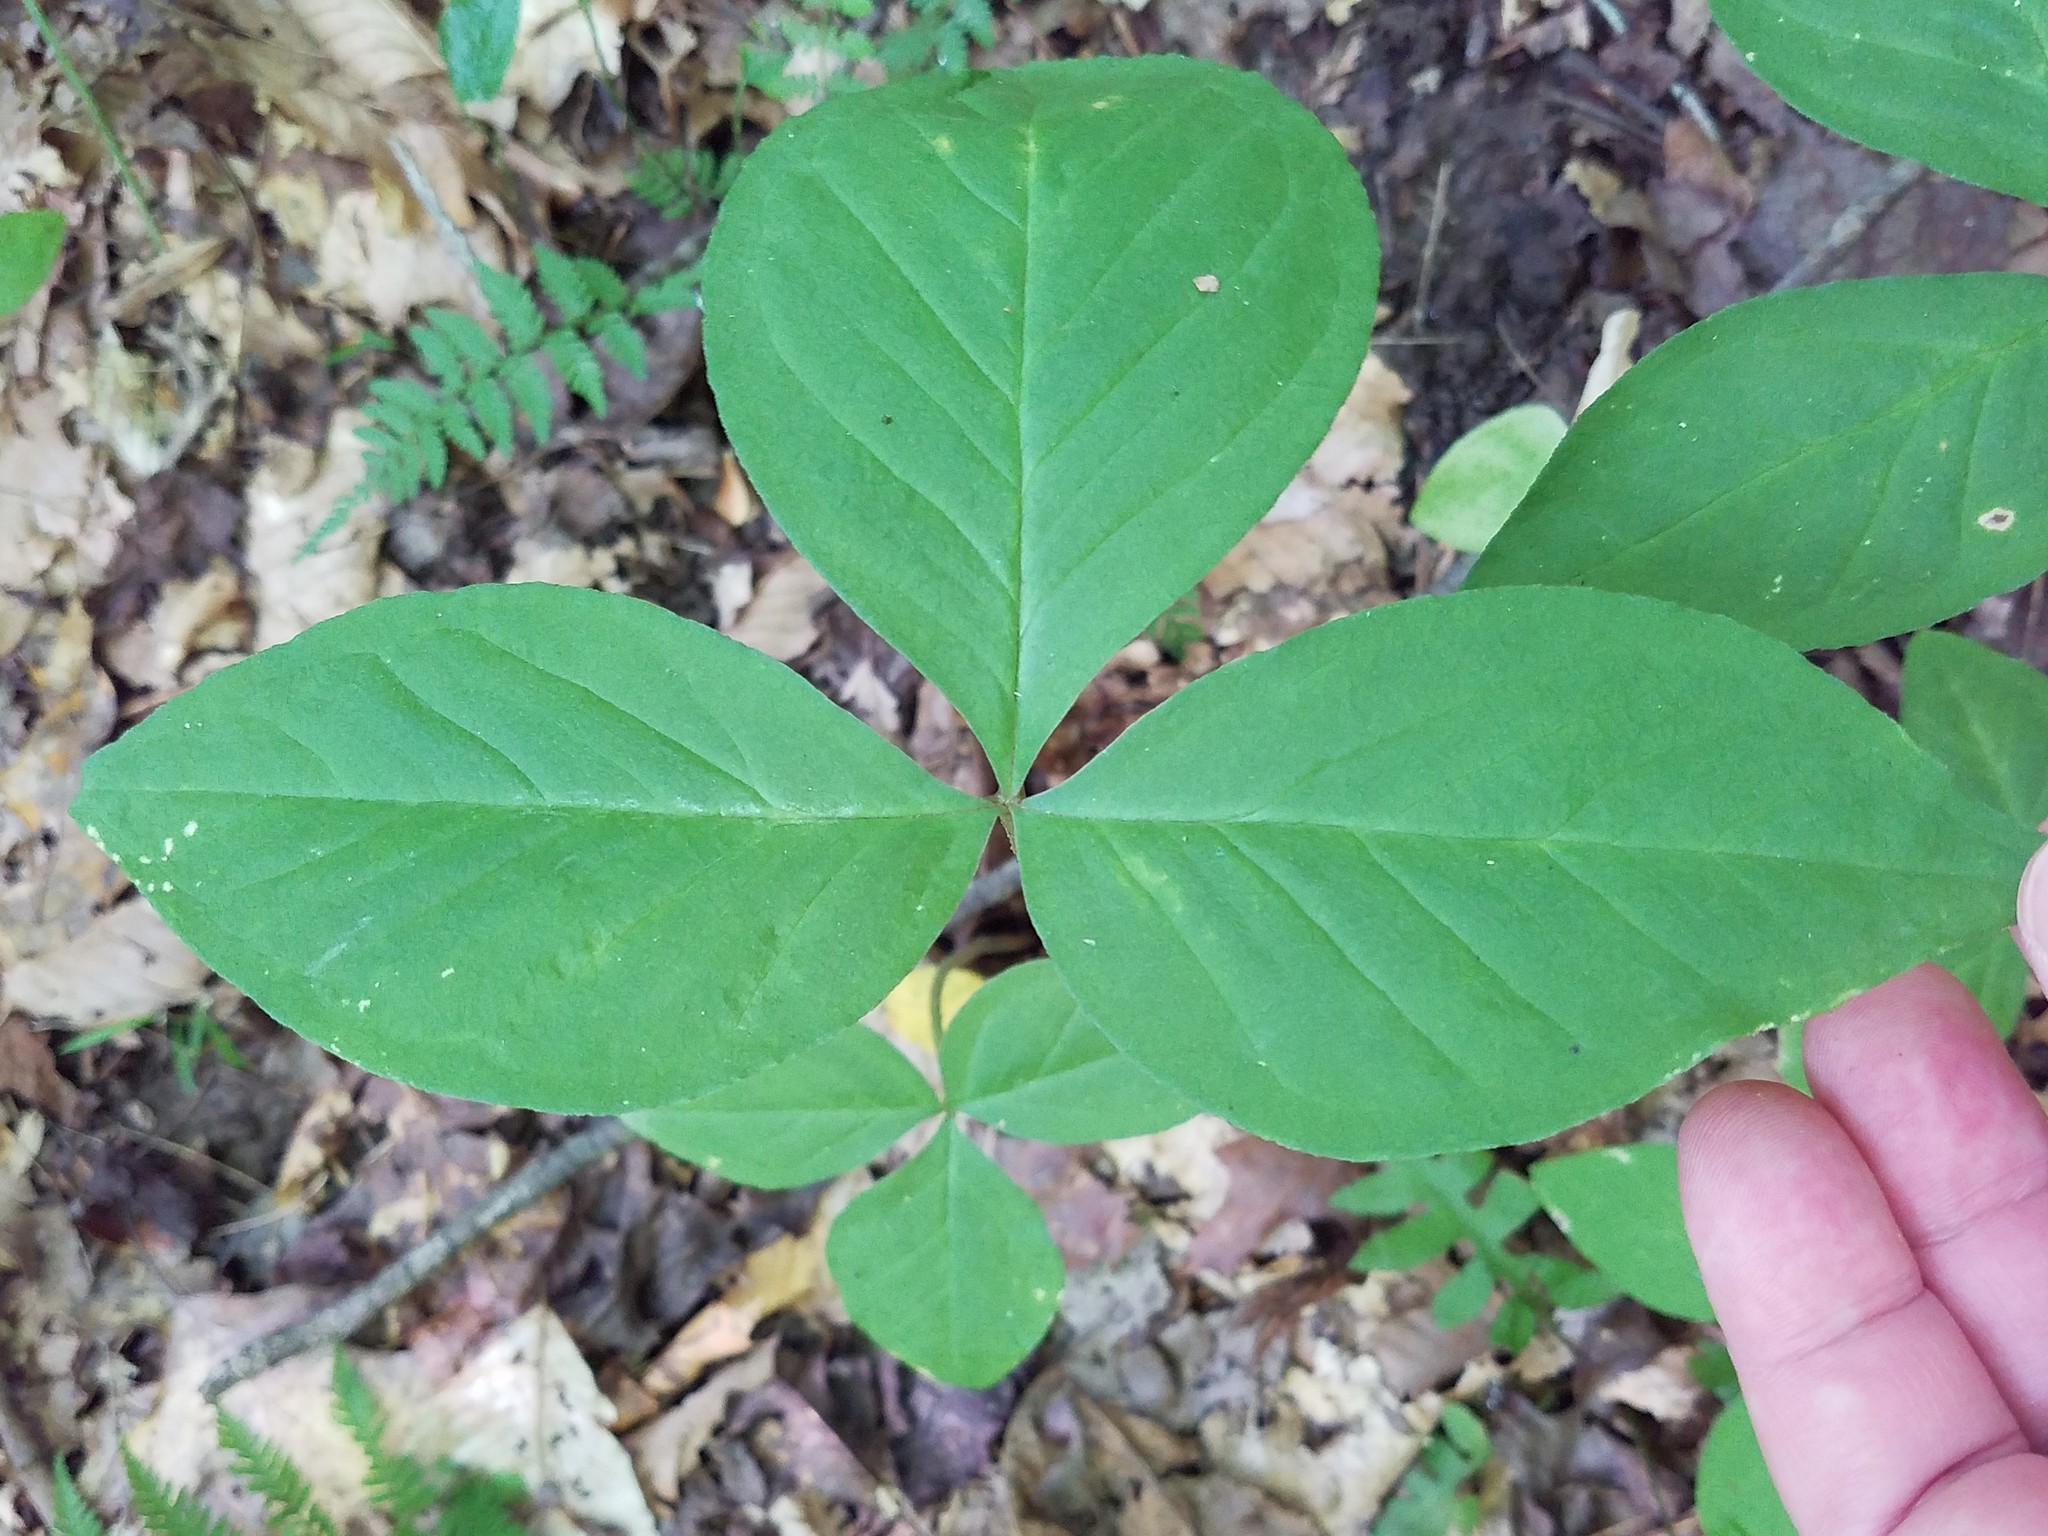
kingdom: Plantae
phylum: Tracheophyta
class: Liliopsida
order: Alismatales
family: Araceae
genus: Arisaema
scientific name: Arisaema triphyllum
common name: Jack-in-the-pulpit
